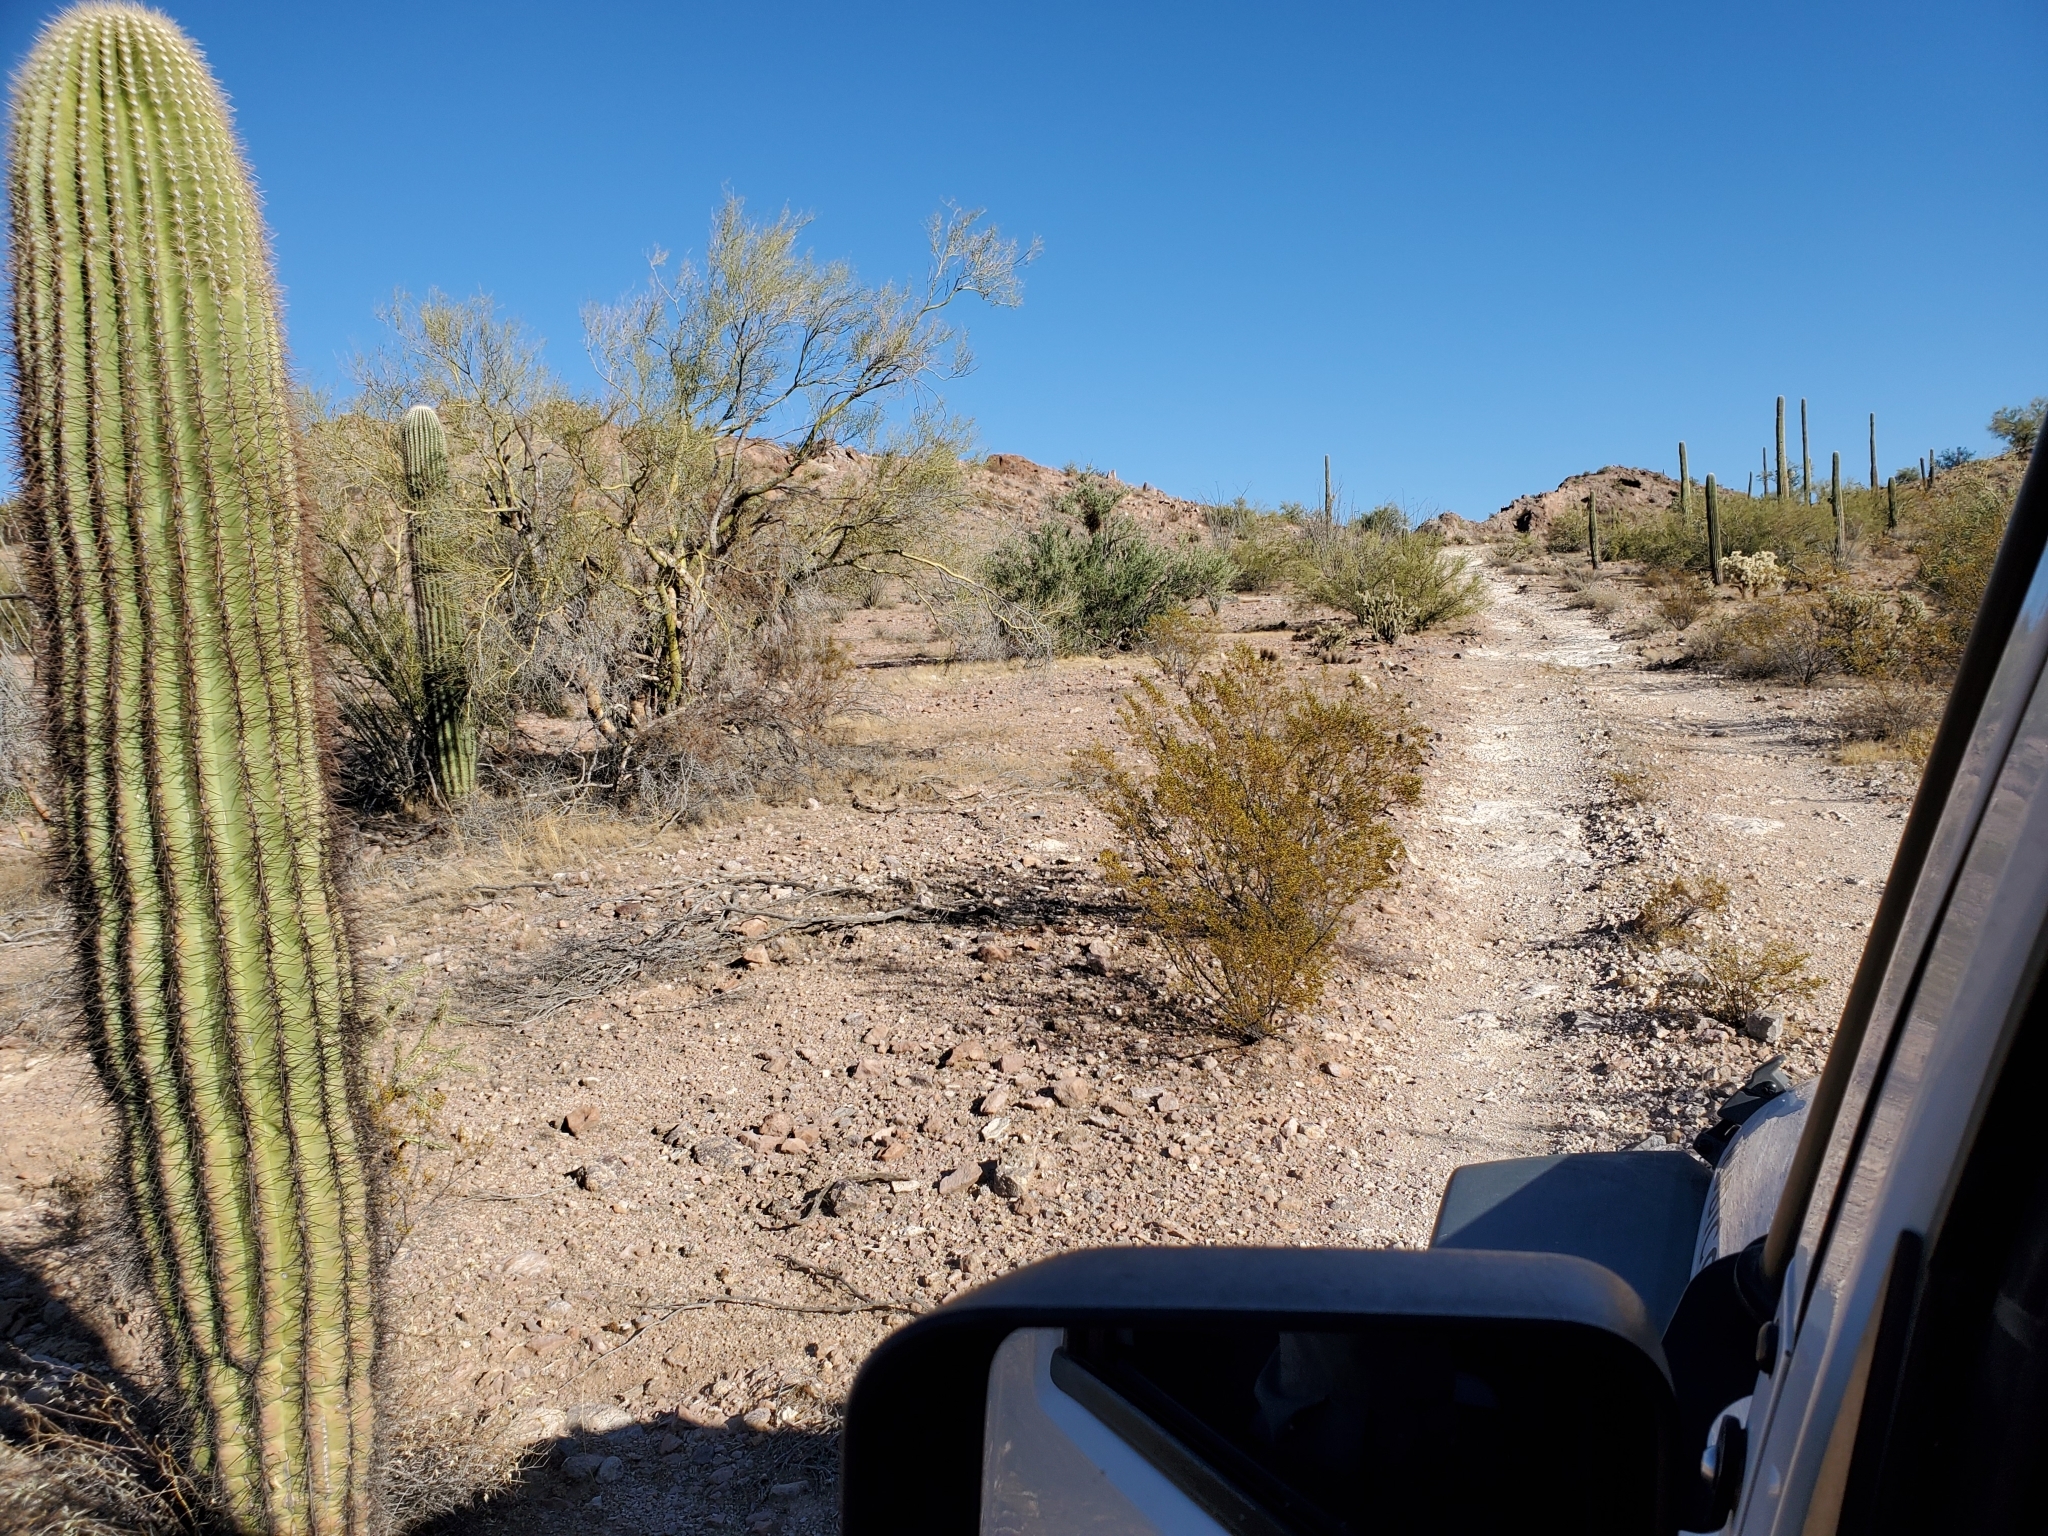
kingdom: Plantae
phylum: Tracheophyta
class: Magnoliopsida
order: Caryophyllales
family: Cactaceae
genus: Carnegiea
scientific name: Carnegiea gigantea
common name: Saguaro
